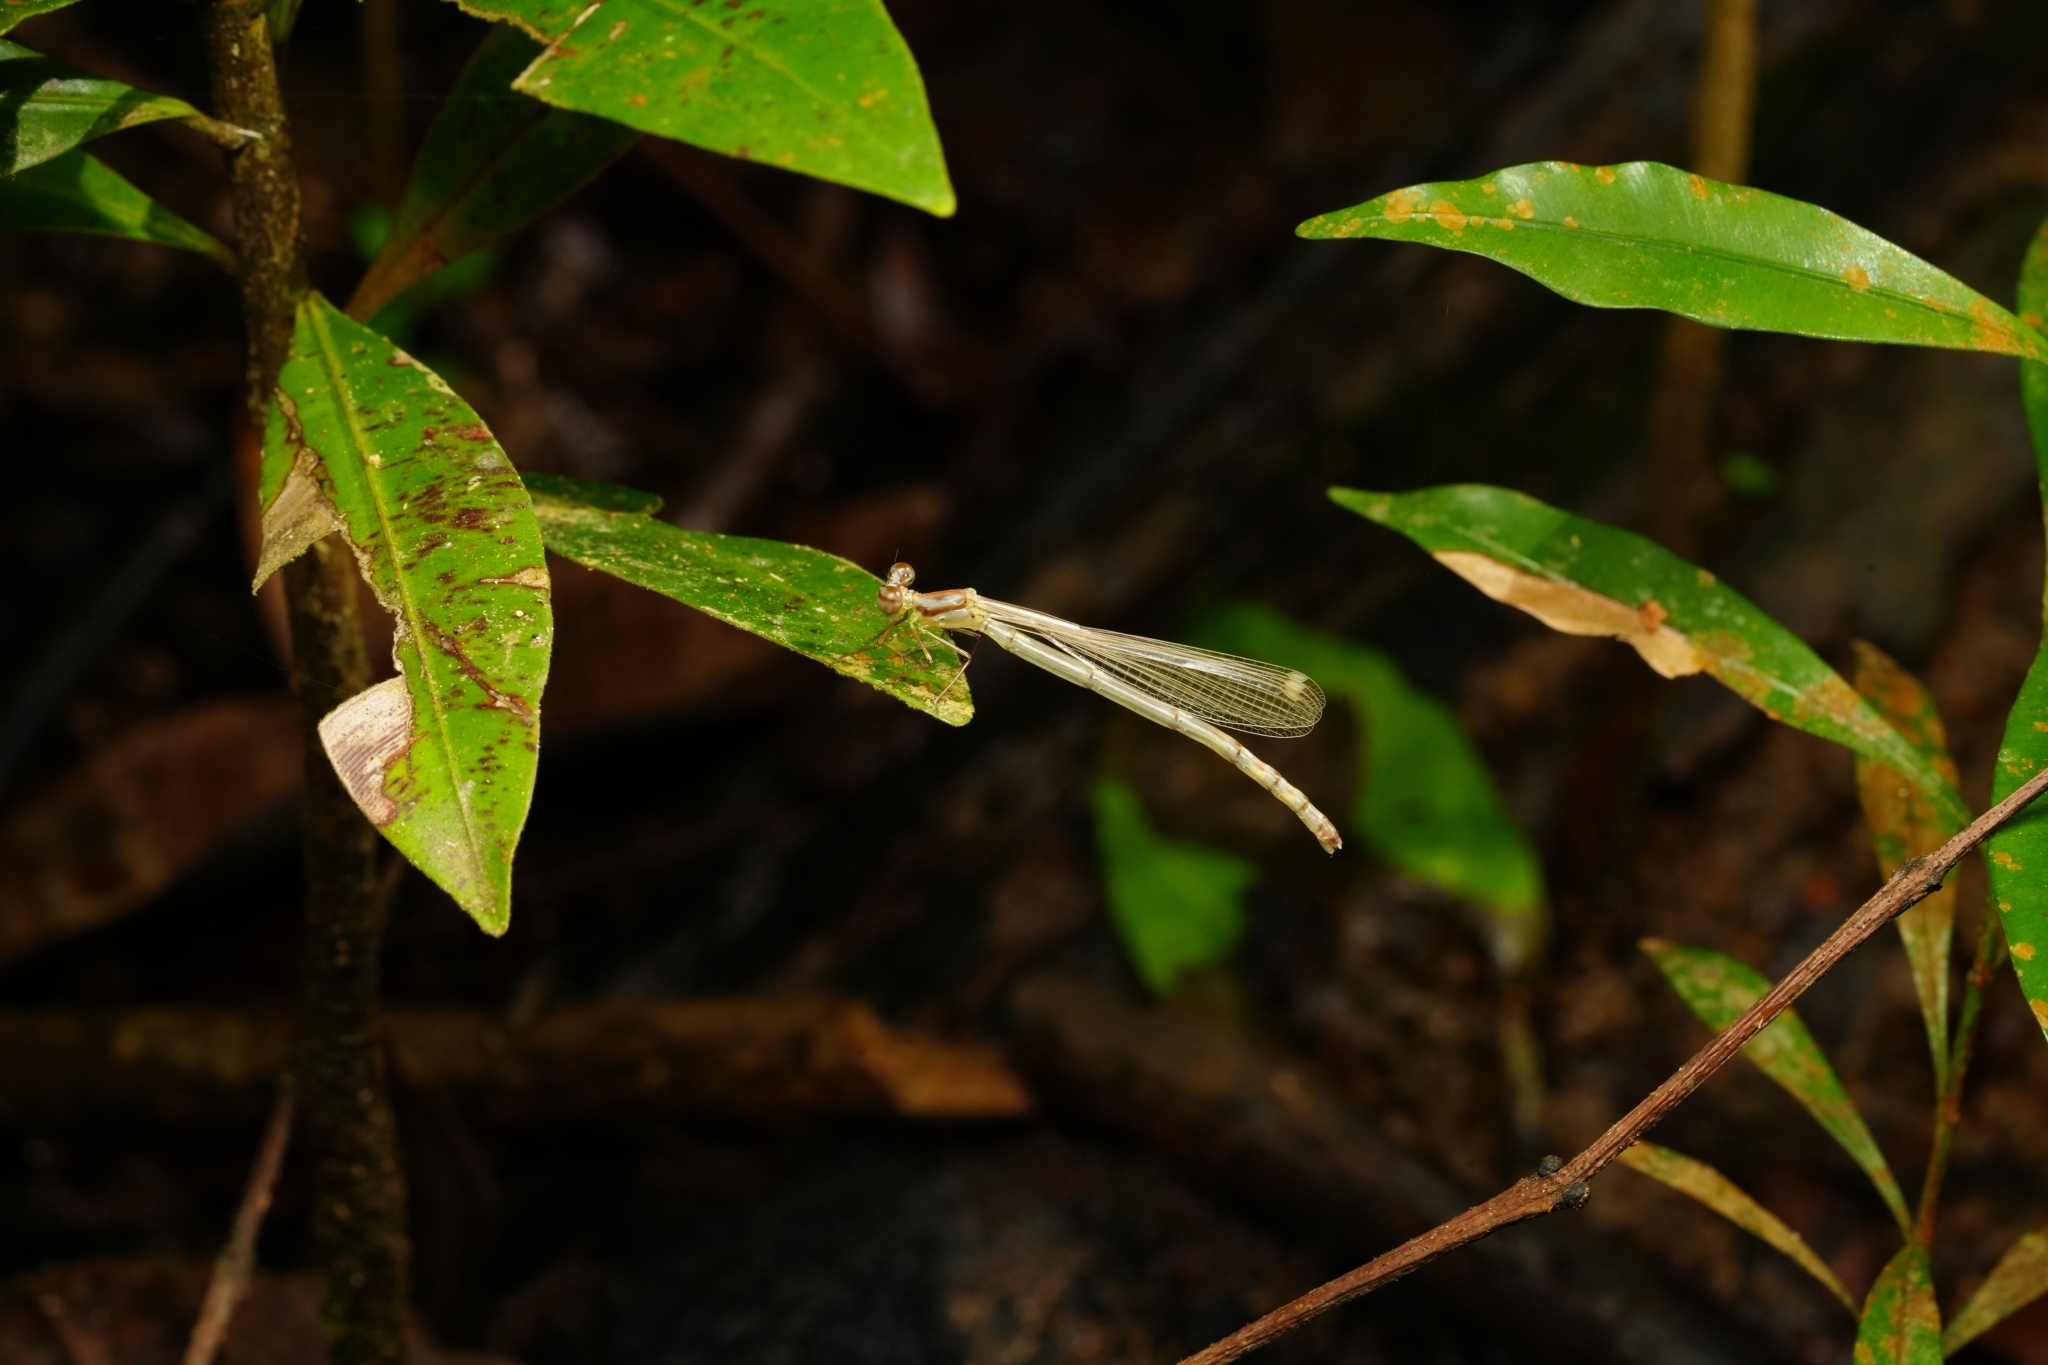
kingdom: Animalia
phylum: Arthropoda
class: Insecta
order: Odonata
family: Platycnemididae
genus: Coeliccia
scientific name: Coeliccia octogesima
